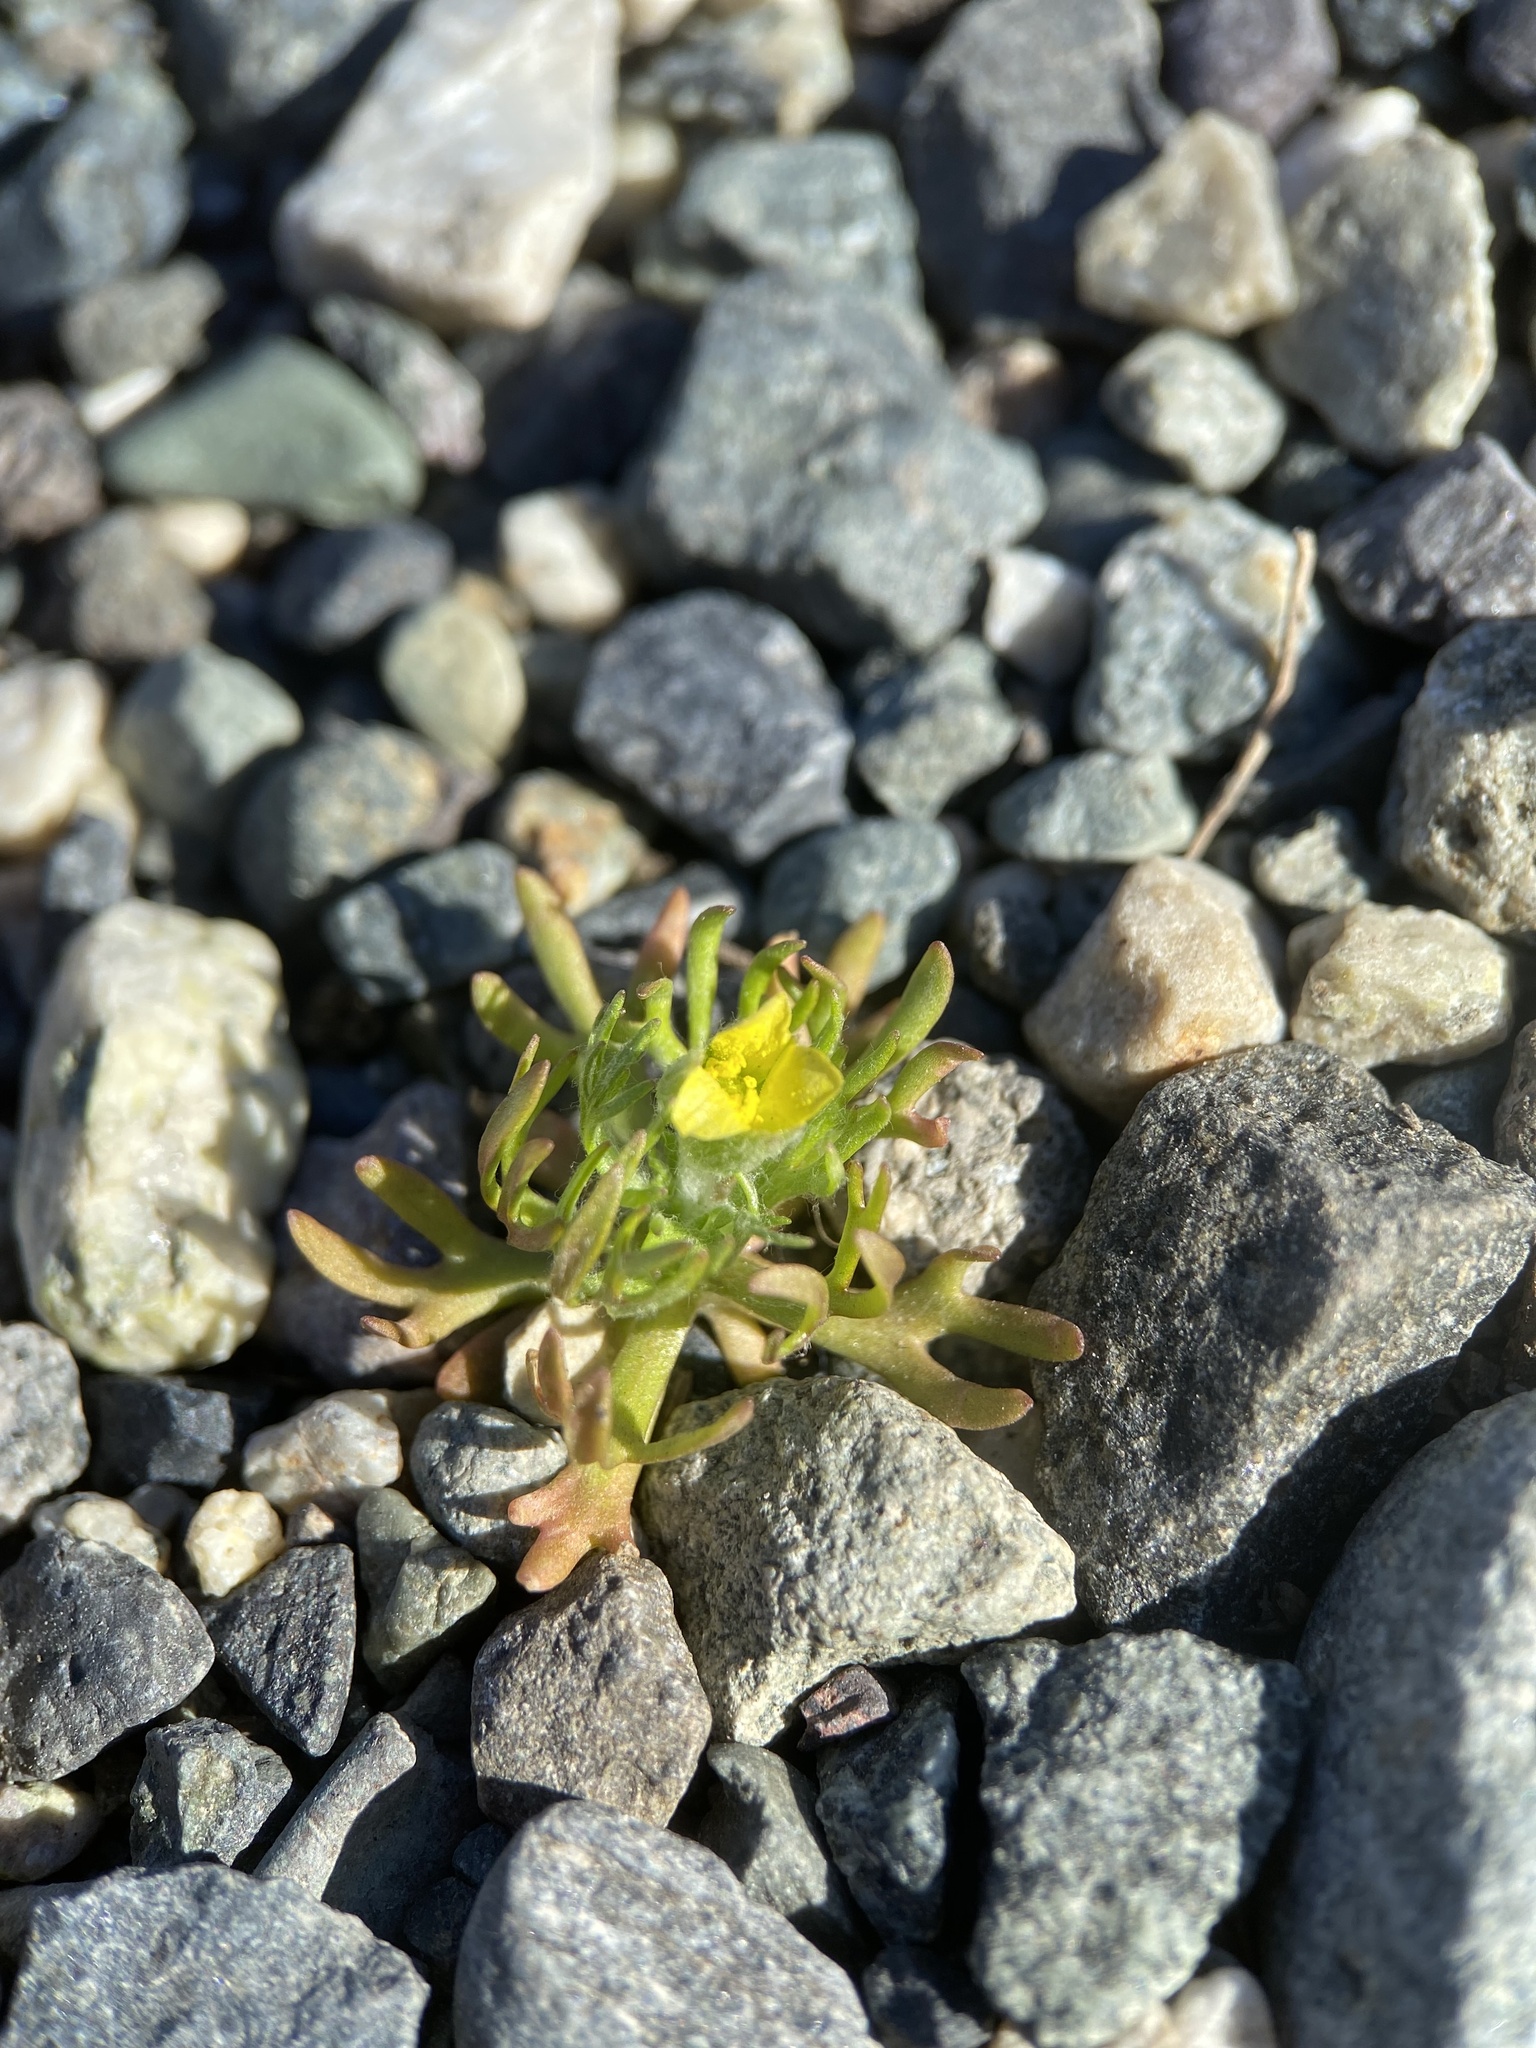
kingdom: Plantae
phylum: Tracheophyta
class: Magnoliopsida
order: Ranunculales
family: Ranunculaceae
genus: Ceratocephala
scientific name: Ceratocephala orthoceras
